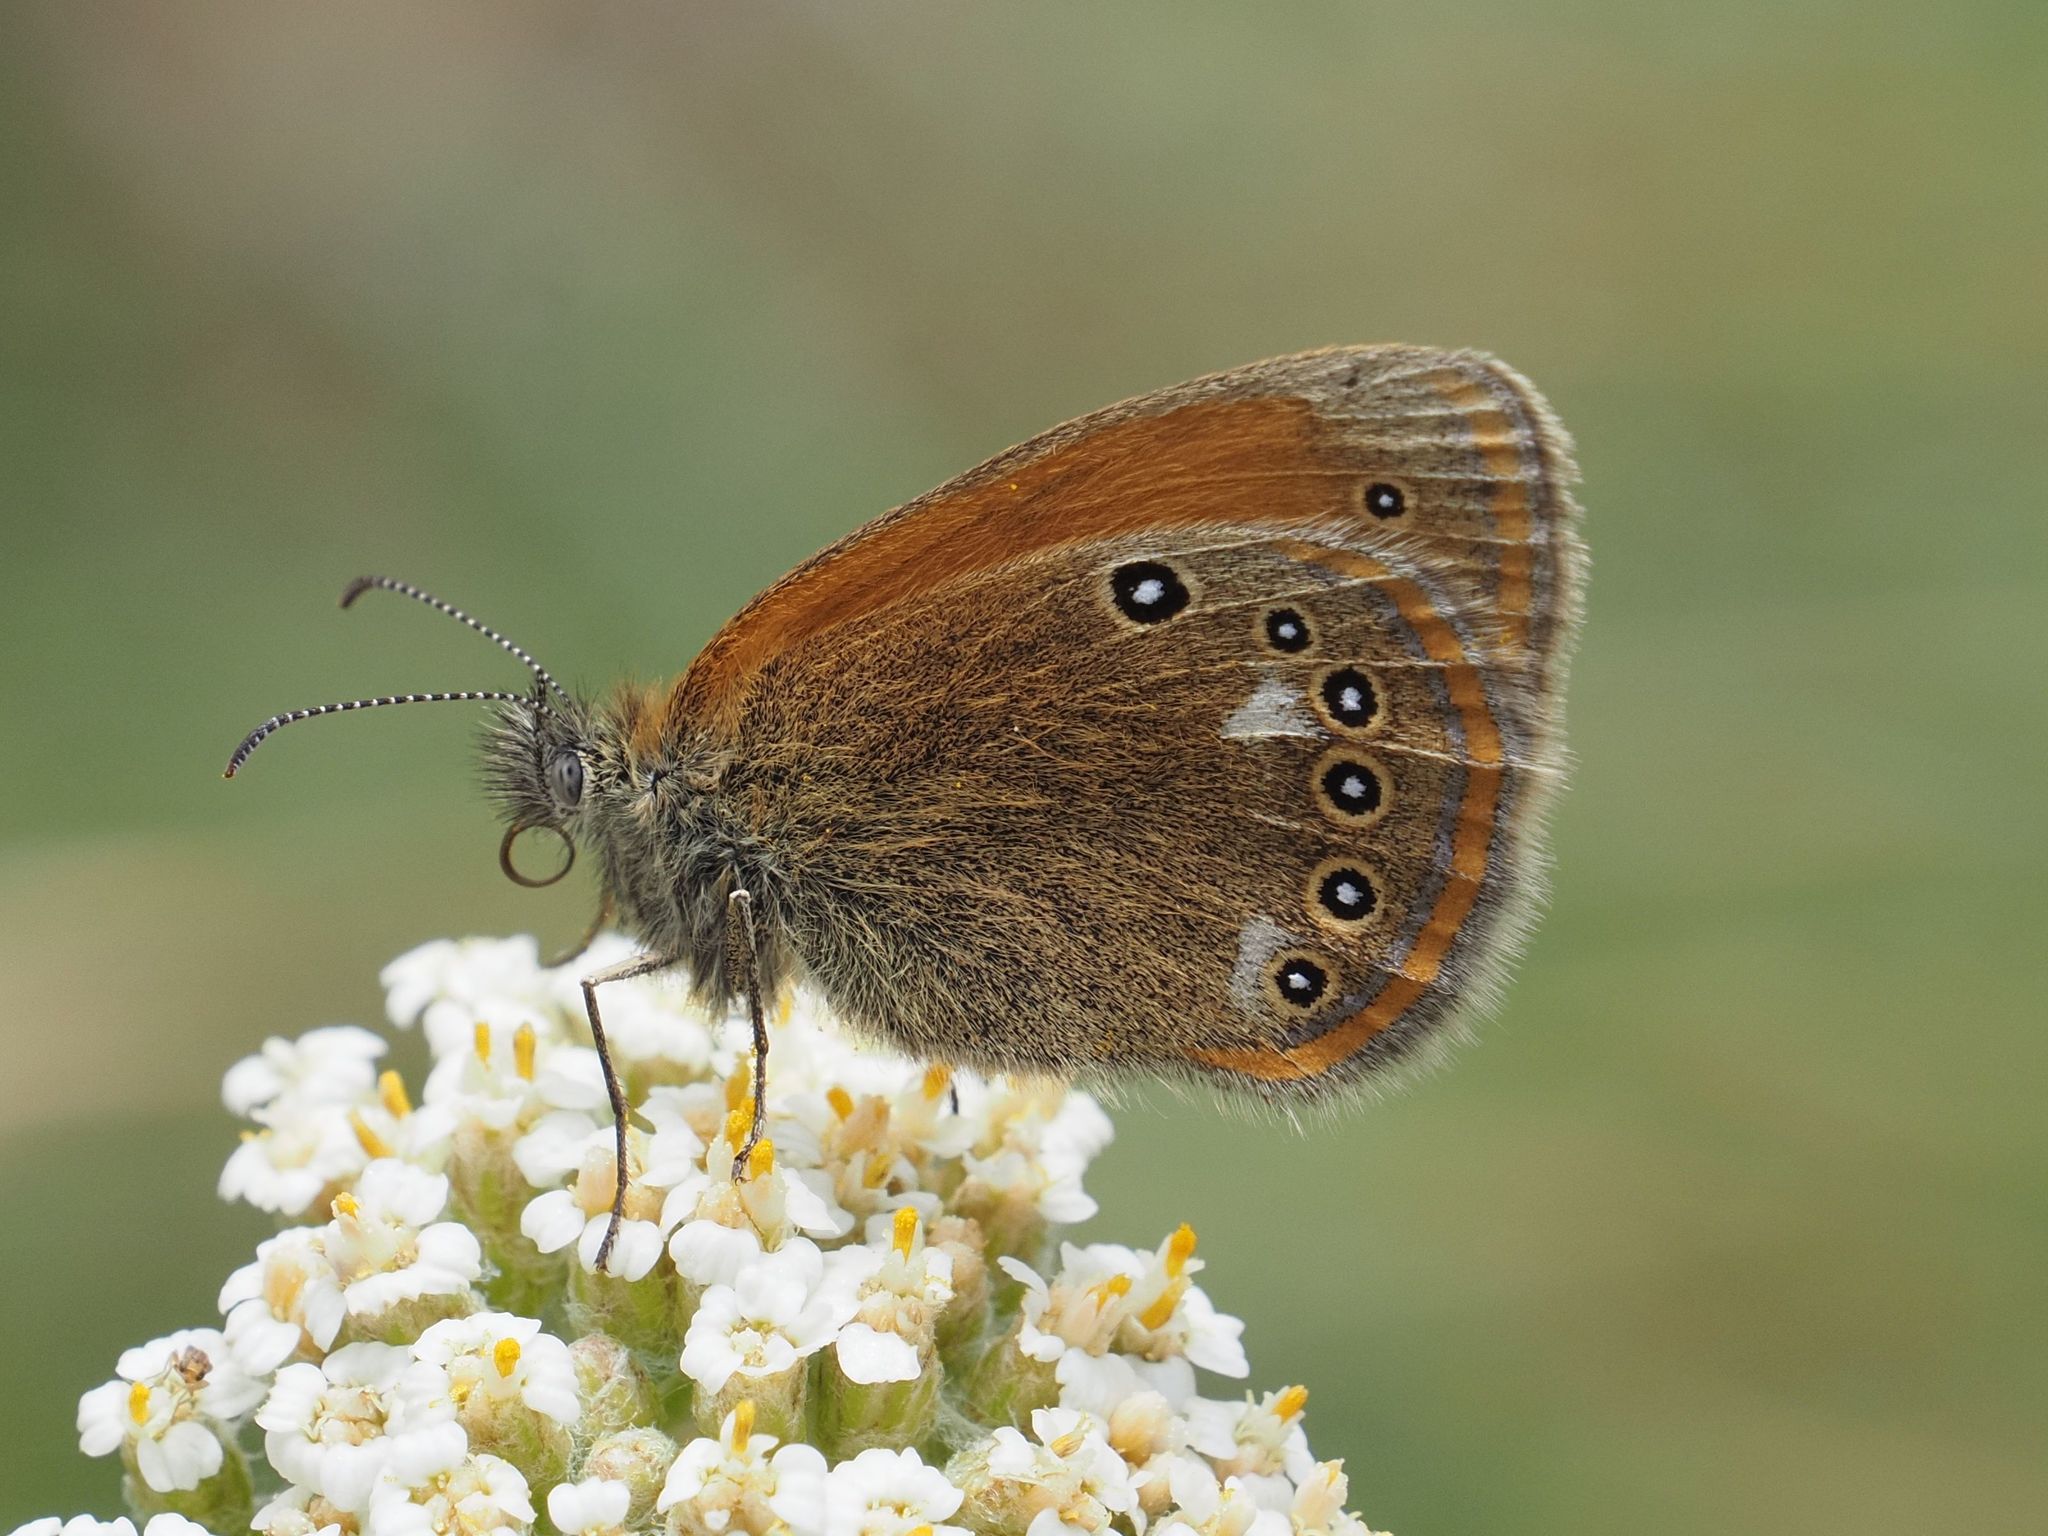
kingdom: Animalia
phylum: Arthropoda
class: Insecta
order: Lepidoptera
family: Nymphalidae
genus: Coenonympha
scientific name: Coenonympha iphis
